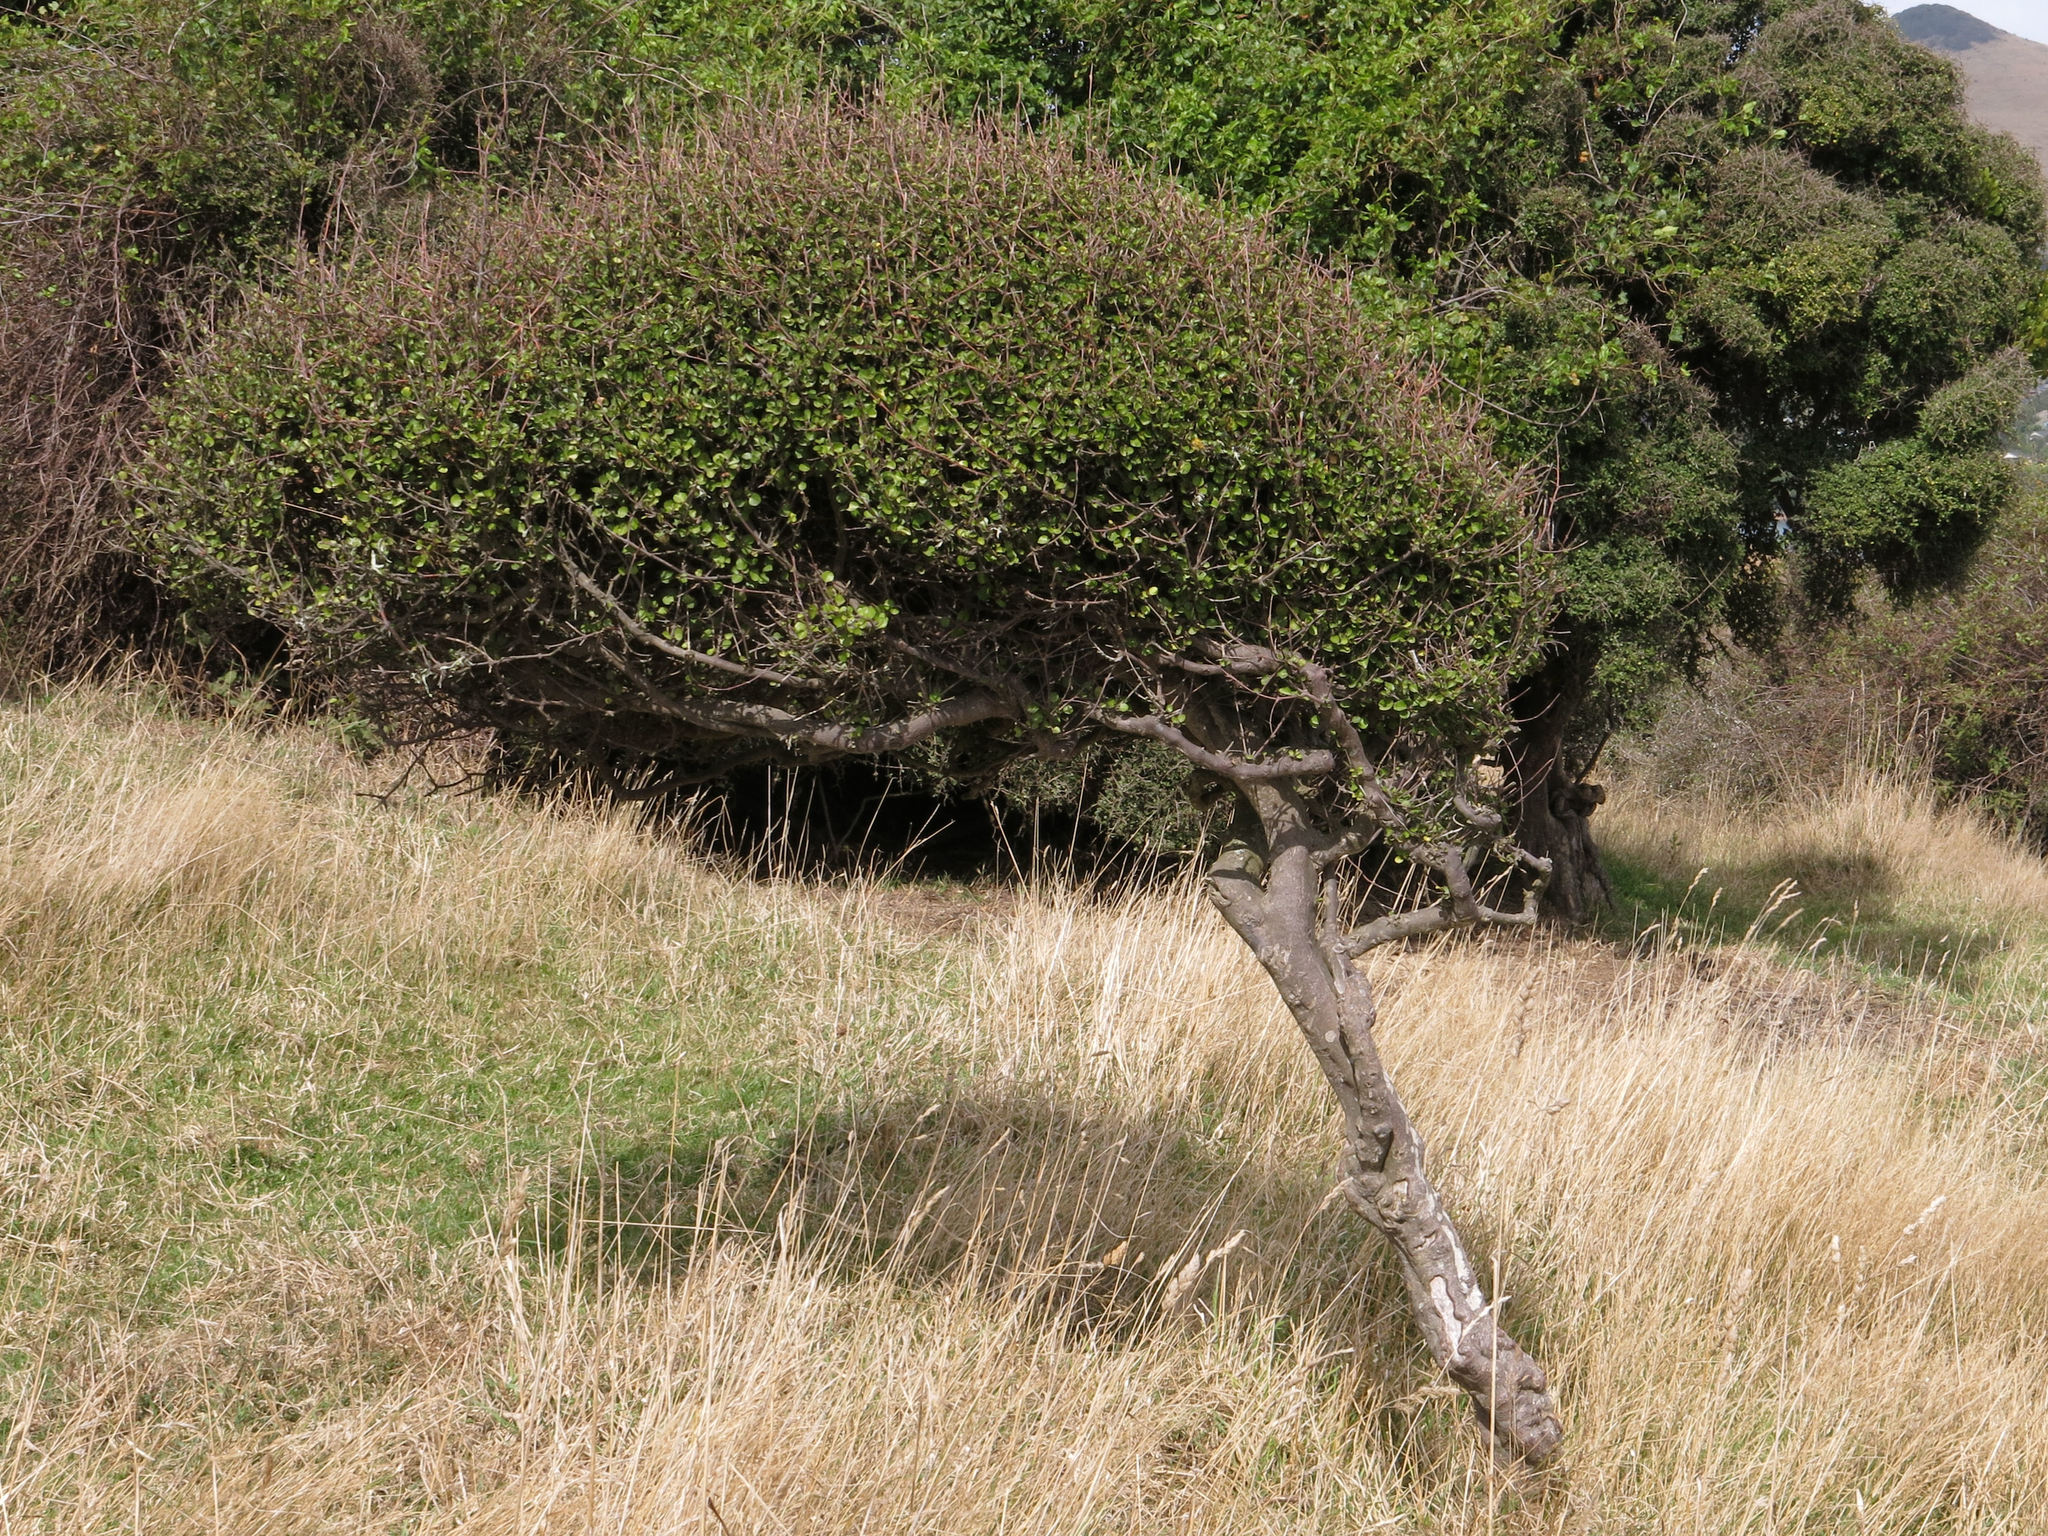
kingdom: Plantae
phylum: Tracheophyta
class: Magnoliopsida
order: Sapindales
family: Rutaceae
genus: Melicope
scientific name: Melicope simplex
